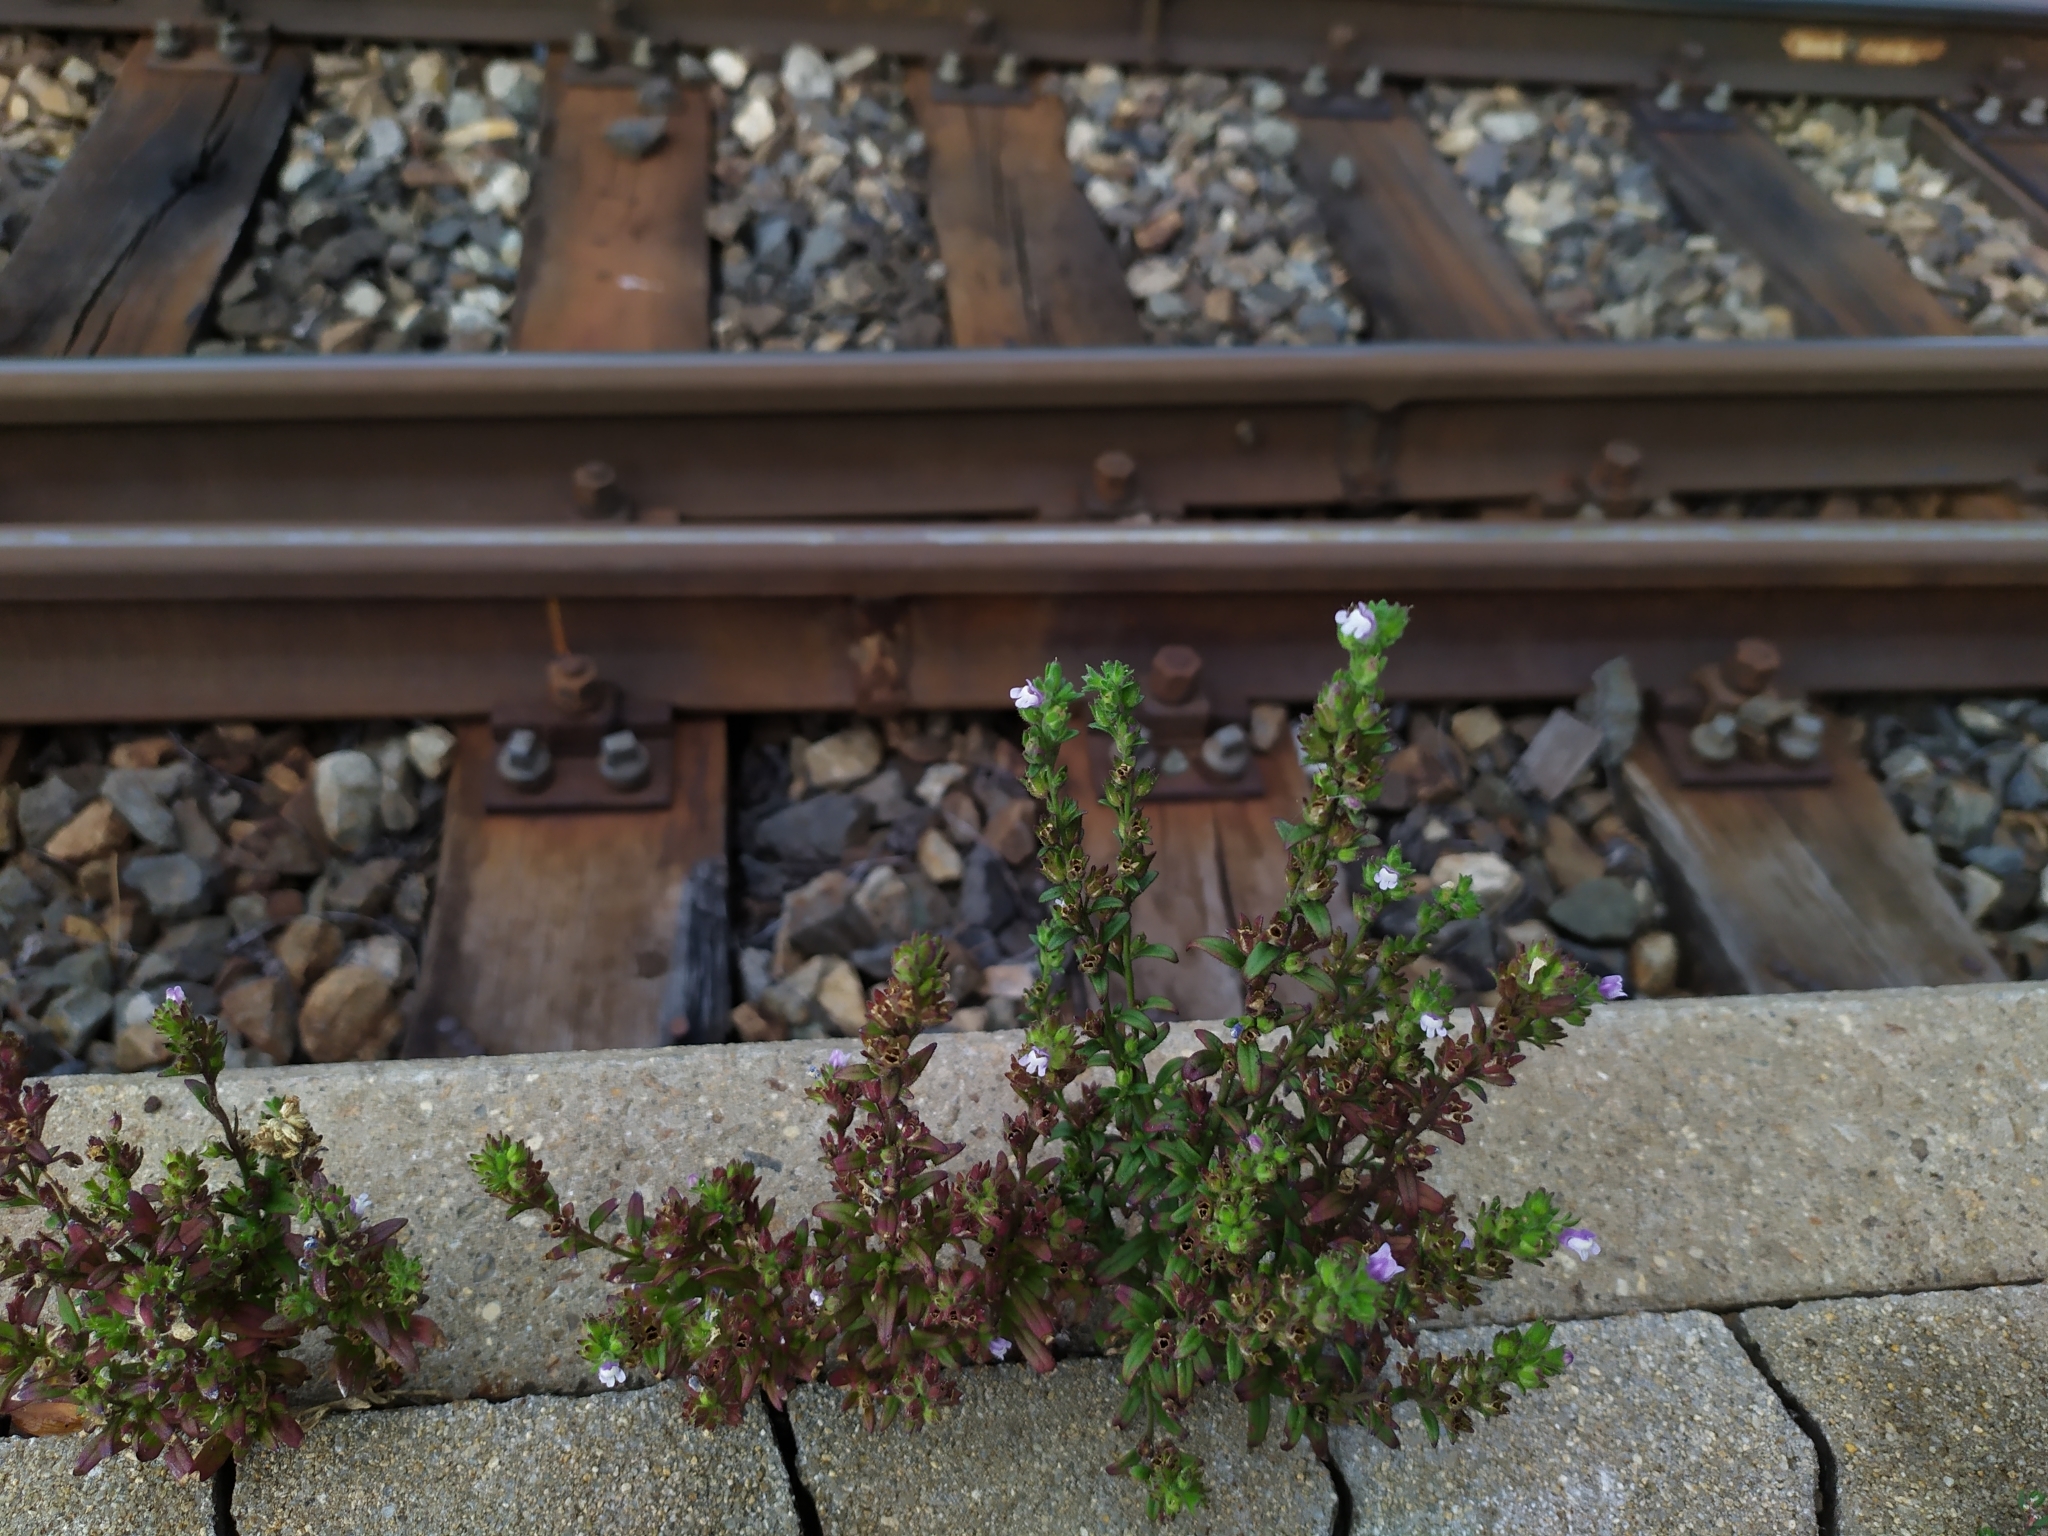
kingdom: Plantae
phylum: Tracheophyta
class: Magnoliopsida
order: Lamiales
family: Plantaginaceae
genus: Chaenorhinum
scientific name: Chaenorhinum litorale
